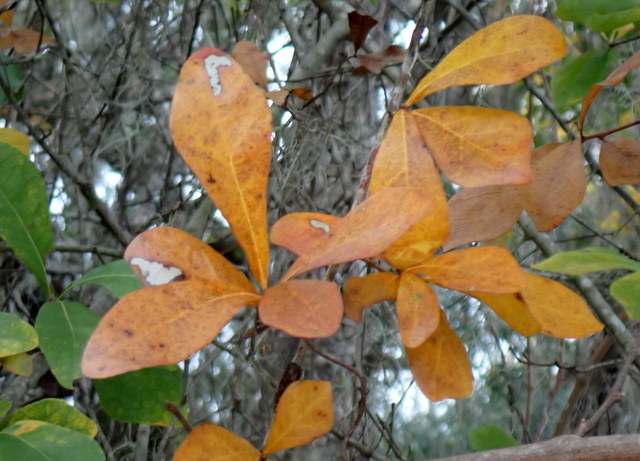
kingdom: Plantae
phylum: Tracheophyta
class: Magnoliopsida
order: Fagales
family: Fagaceae
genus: Quercus
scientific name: Quercus nigra
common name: Water oak
